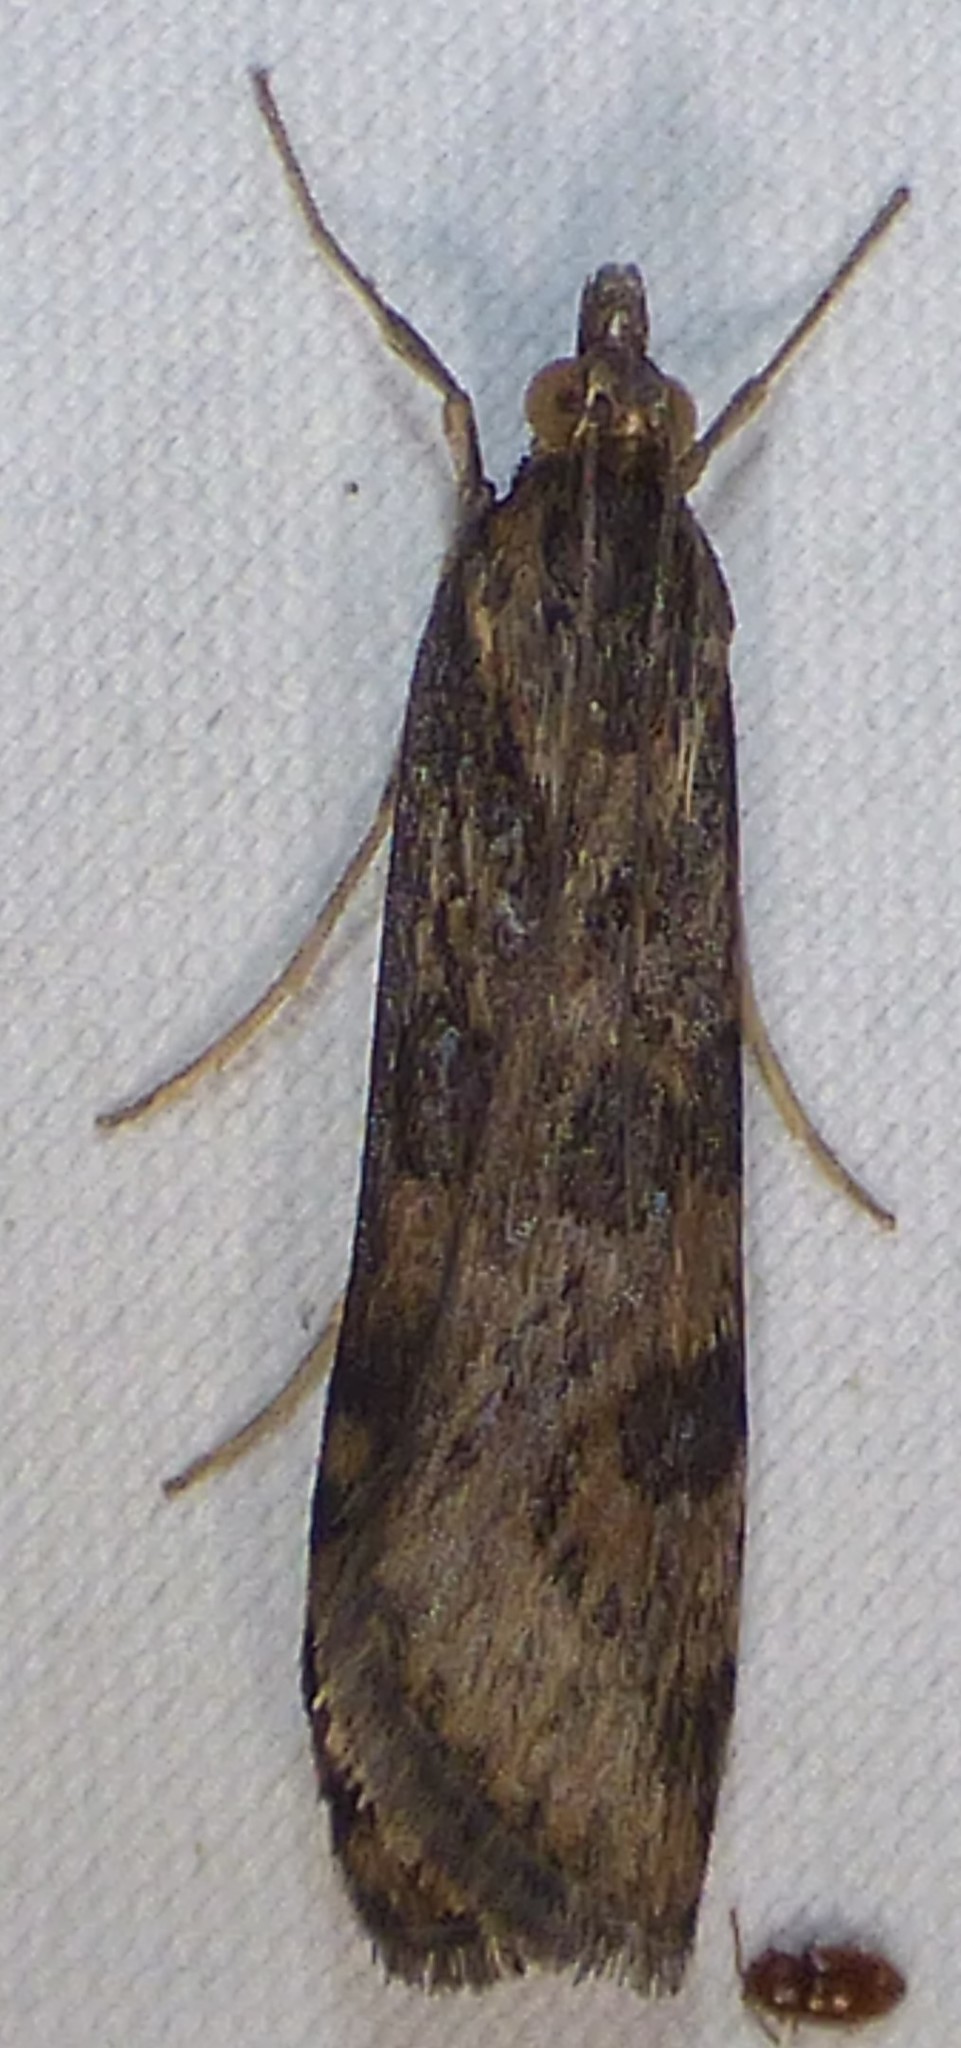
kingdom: Animalia
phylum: Arthropoda
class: Insecta
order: Lepidoptera
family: Crambidae
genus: Nomophila
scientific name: Nomophila nearctica
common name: American rush veneer
